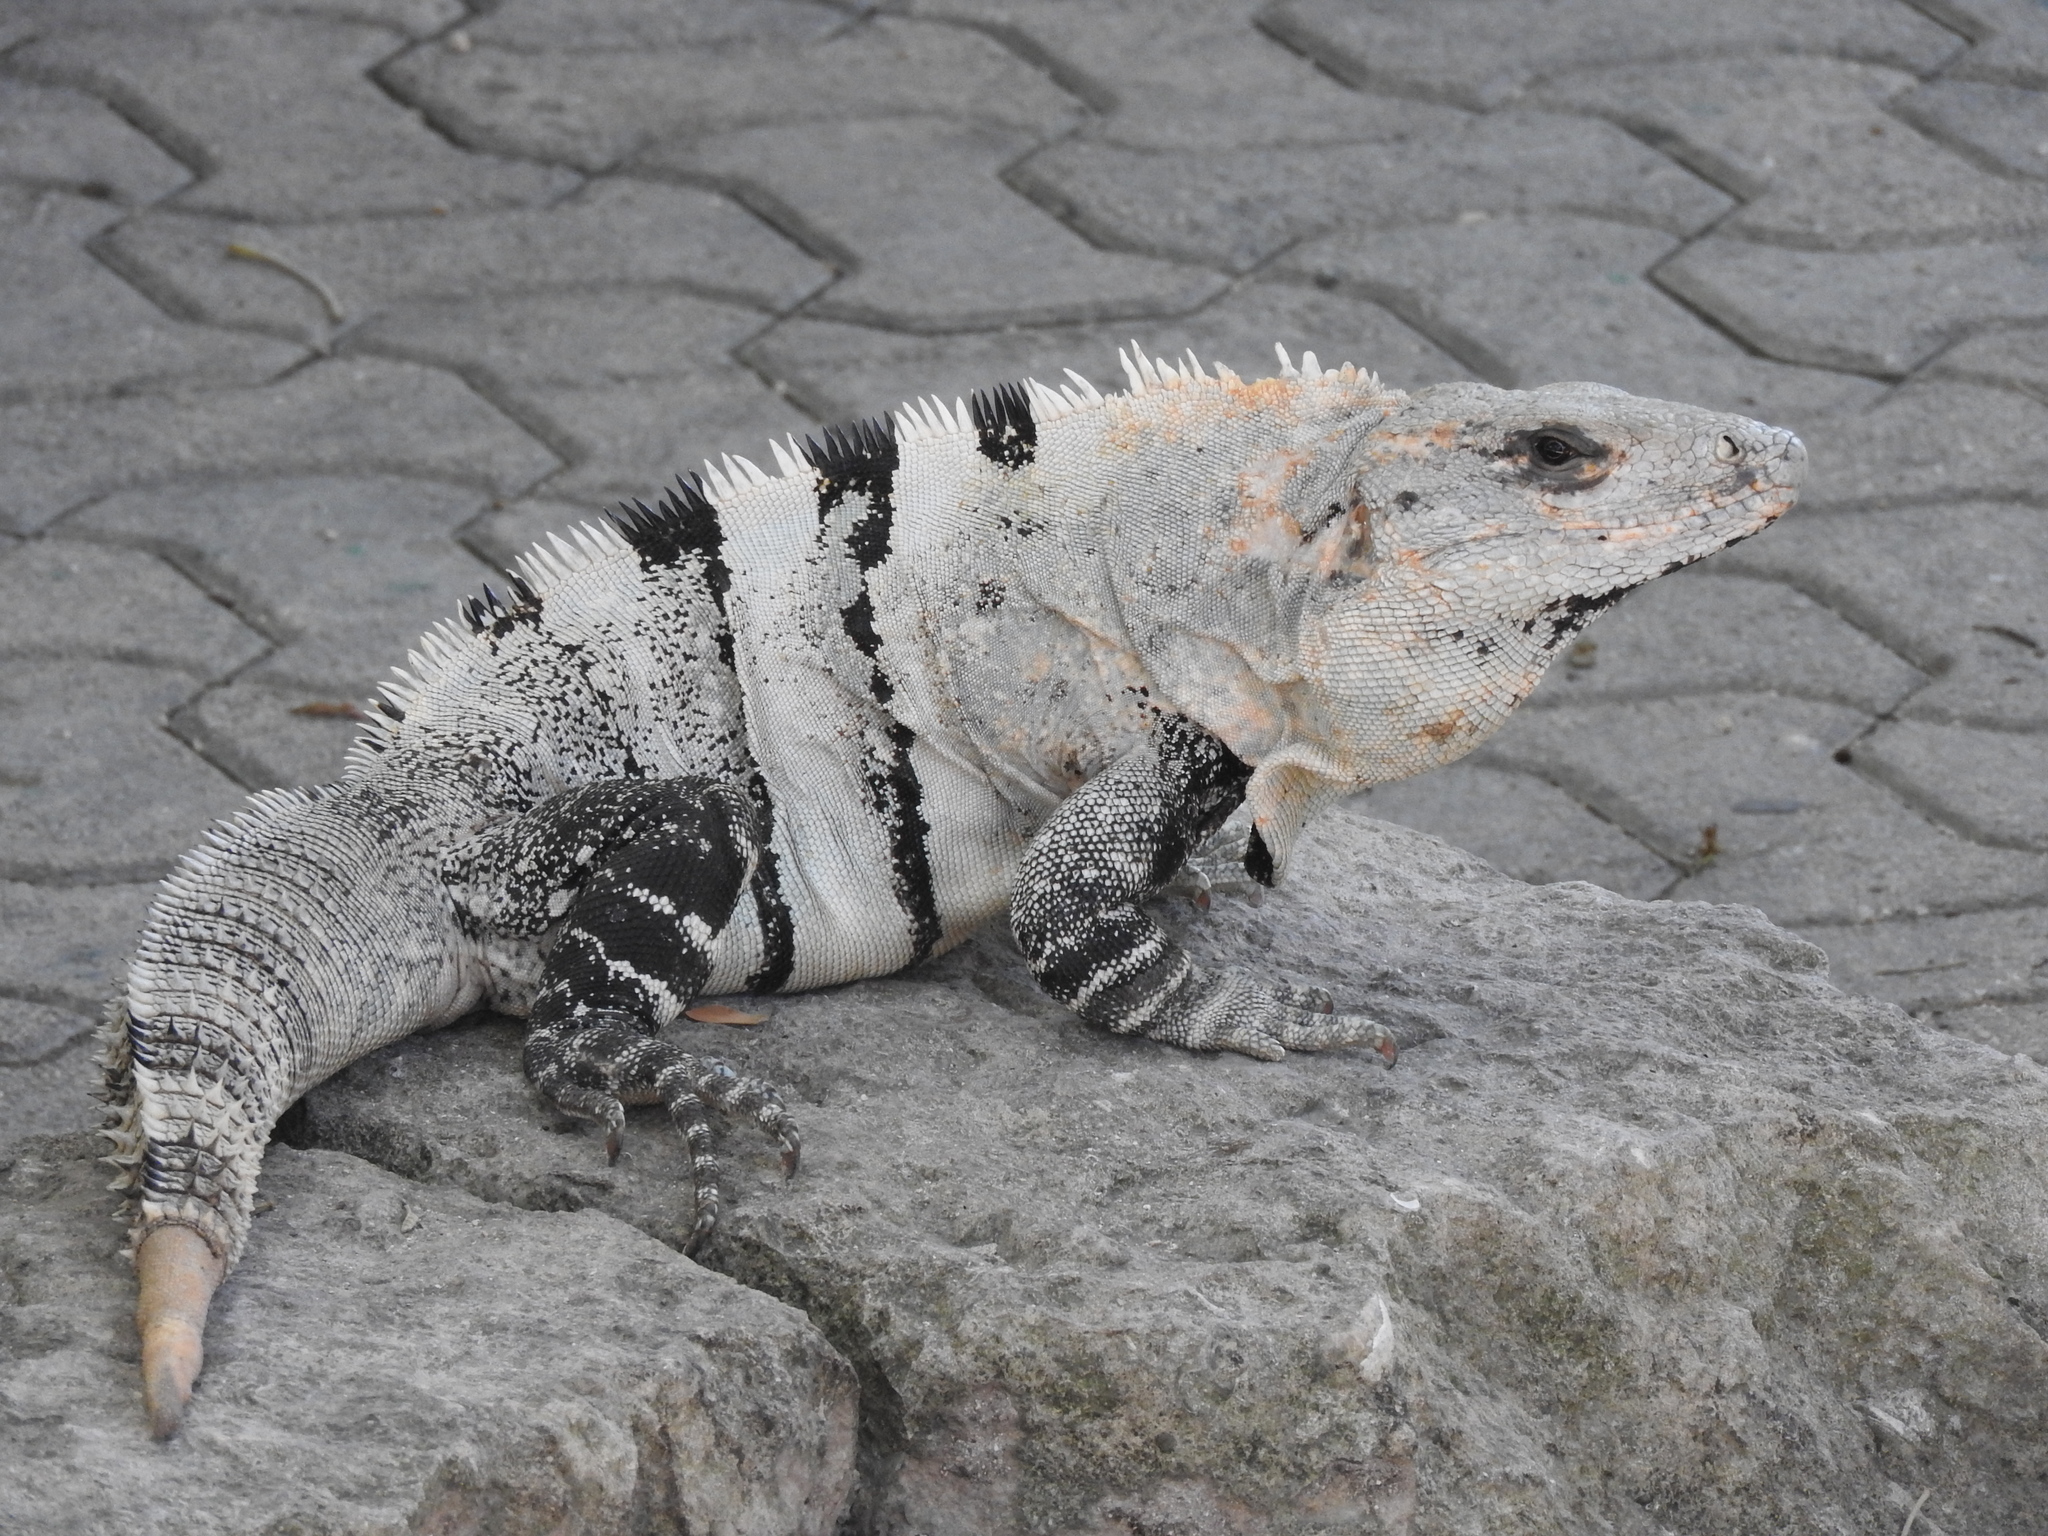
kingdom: Animalia
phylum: Chordata
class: Squamata
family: Iguanidae
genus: Ctenosaura
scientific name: Ctenosaura similis
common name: Black spiny-tailed iguana
